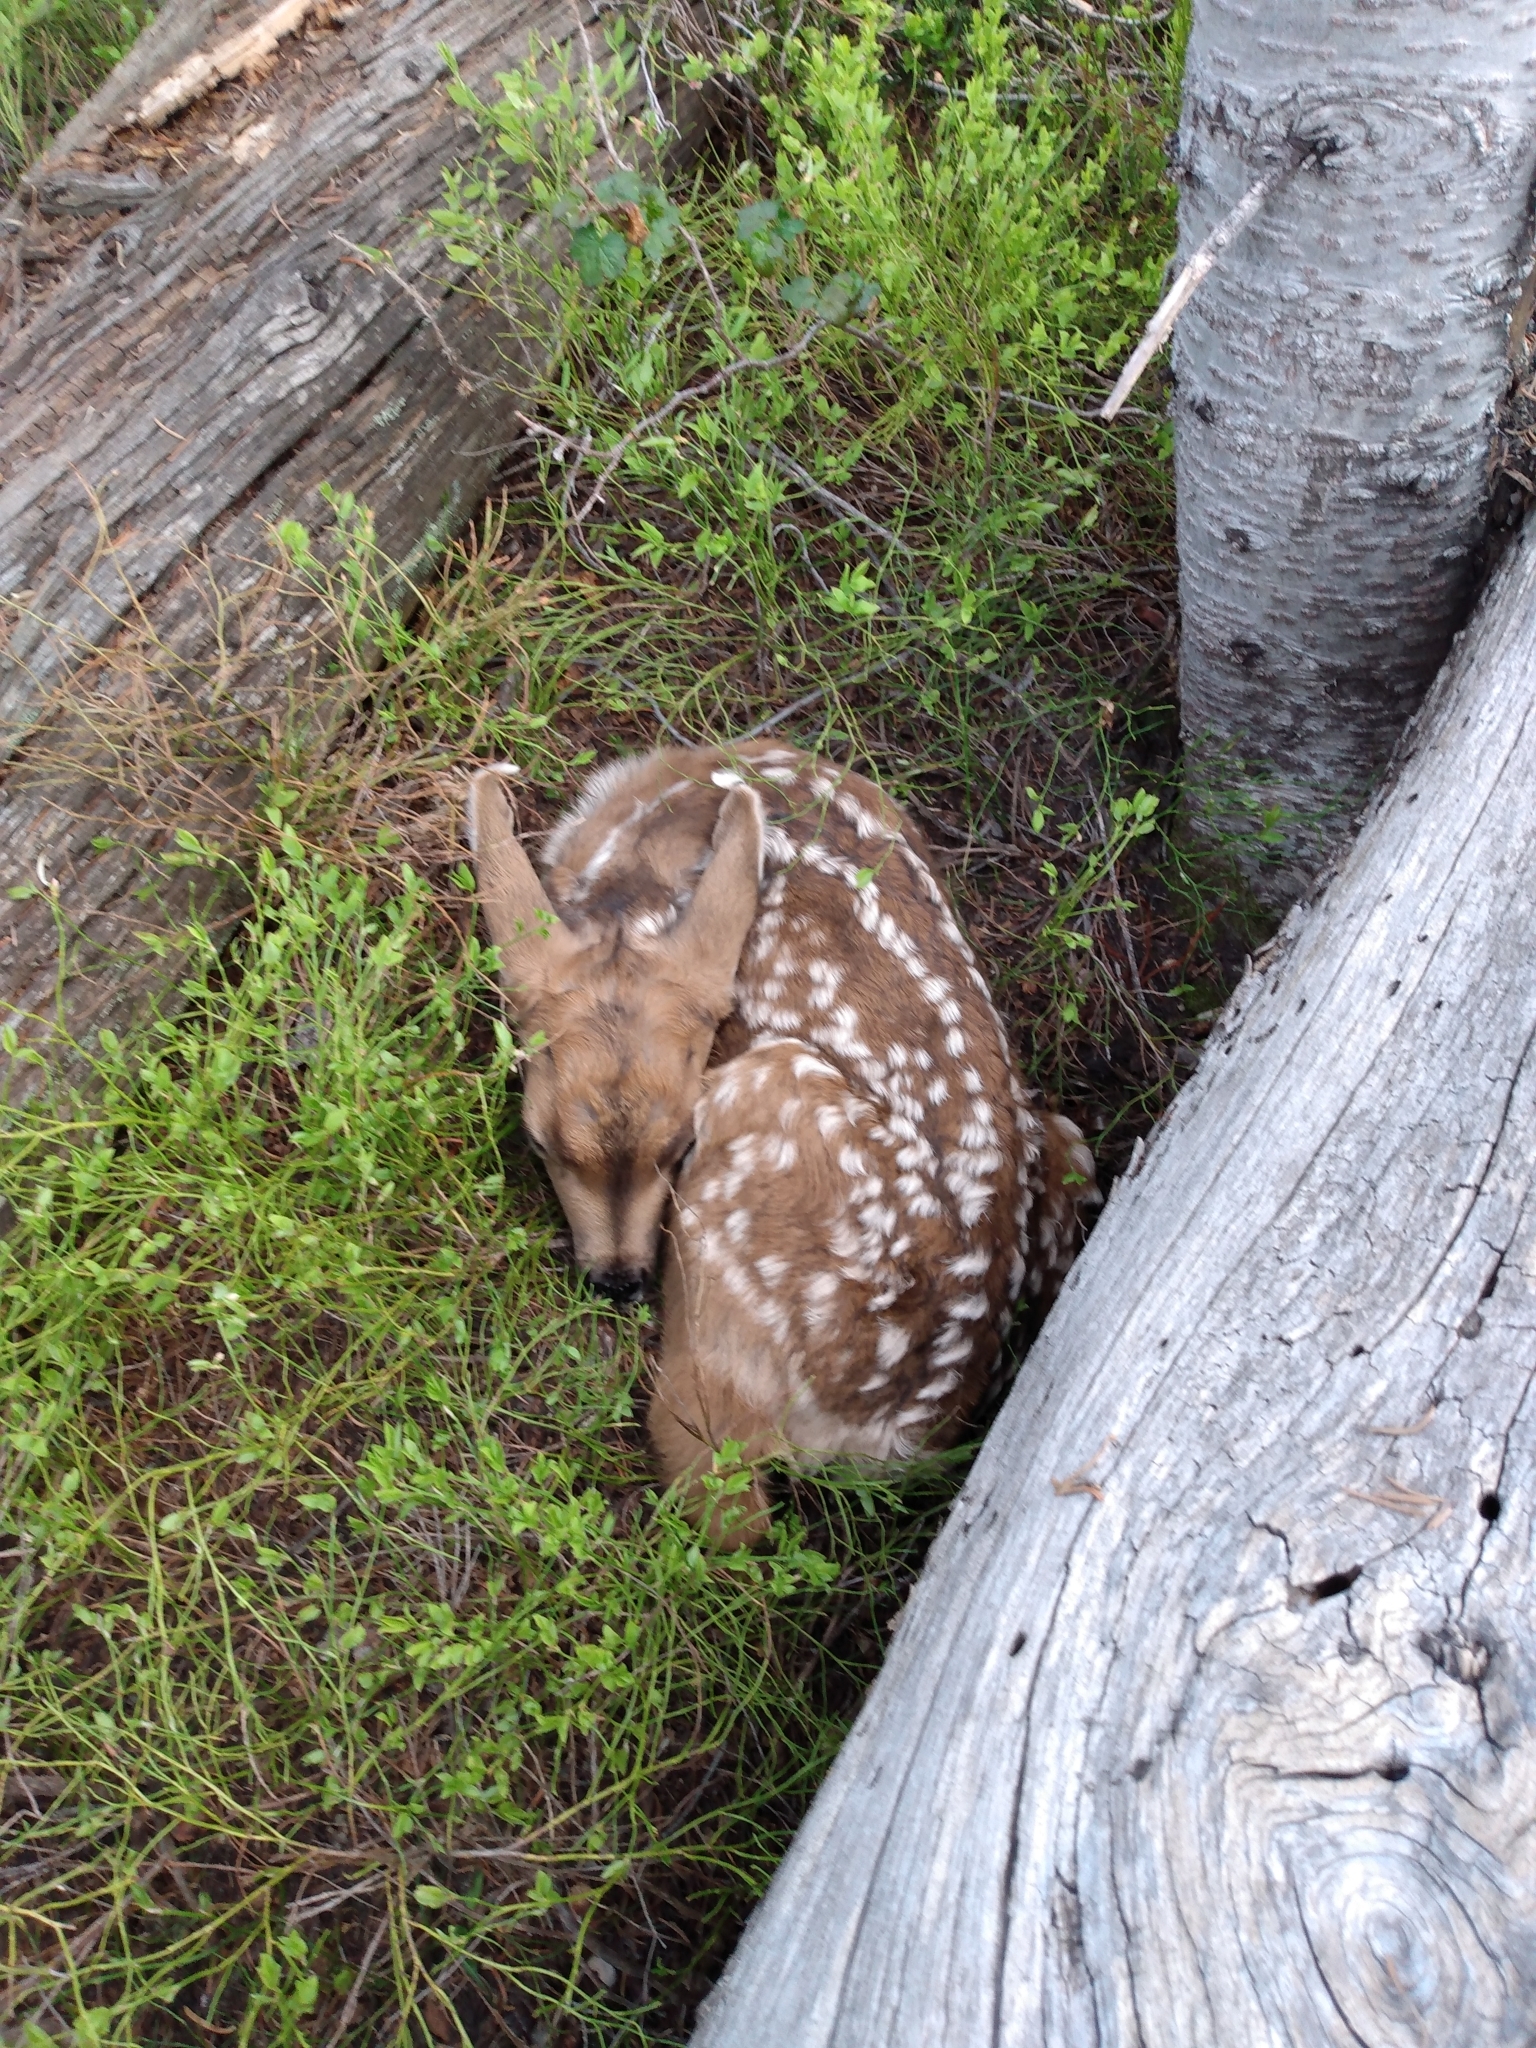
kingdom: Animalia
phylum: Chordata
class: Mammalia
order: Artiodactyla
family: Cervidae
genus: Odocoileus
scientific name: Odocoileus hemionus
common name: Mule deer
